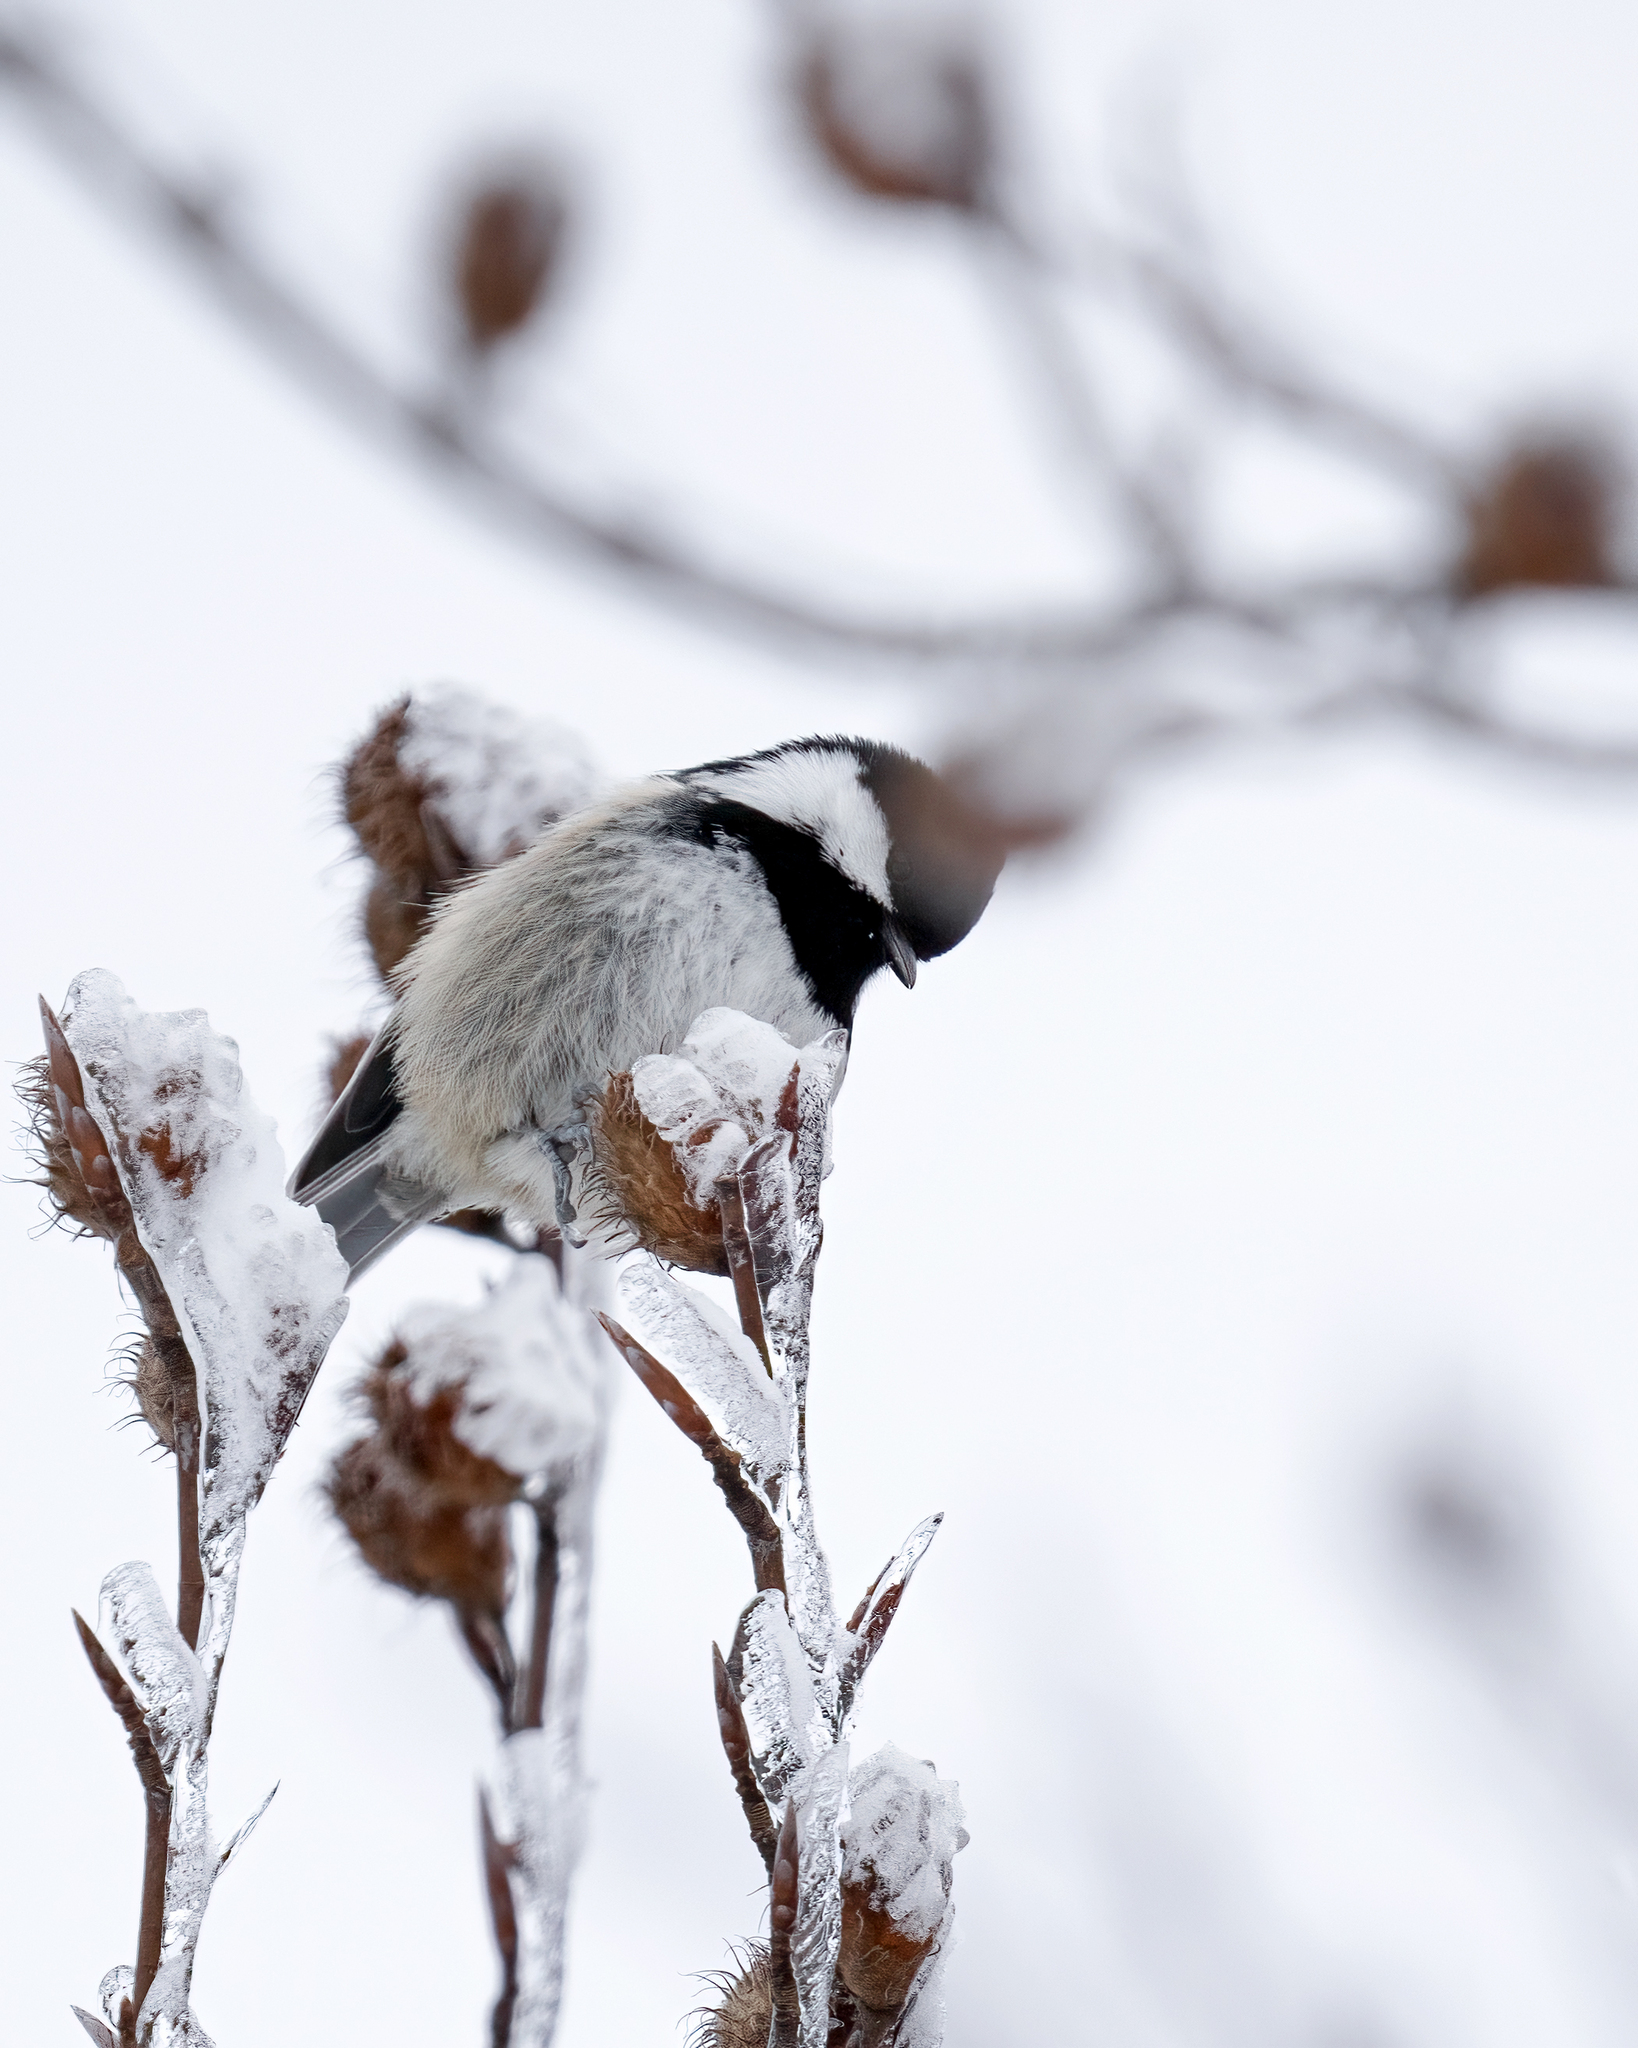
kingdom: Animalia
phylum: Chordata
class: Aves
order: Passeriformes
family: Paridae
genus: Periparus
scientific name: Periparus ater
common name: Coal tit
